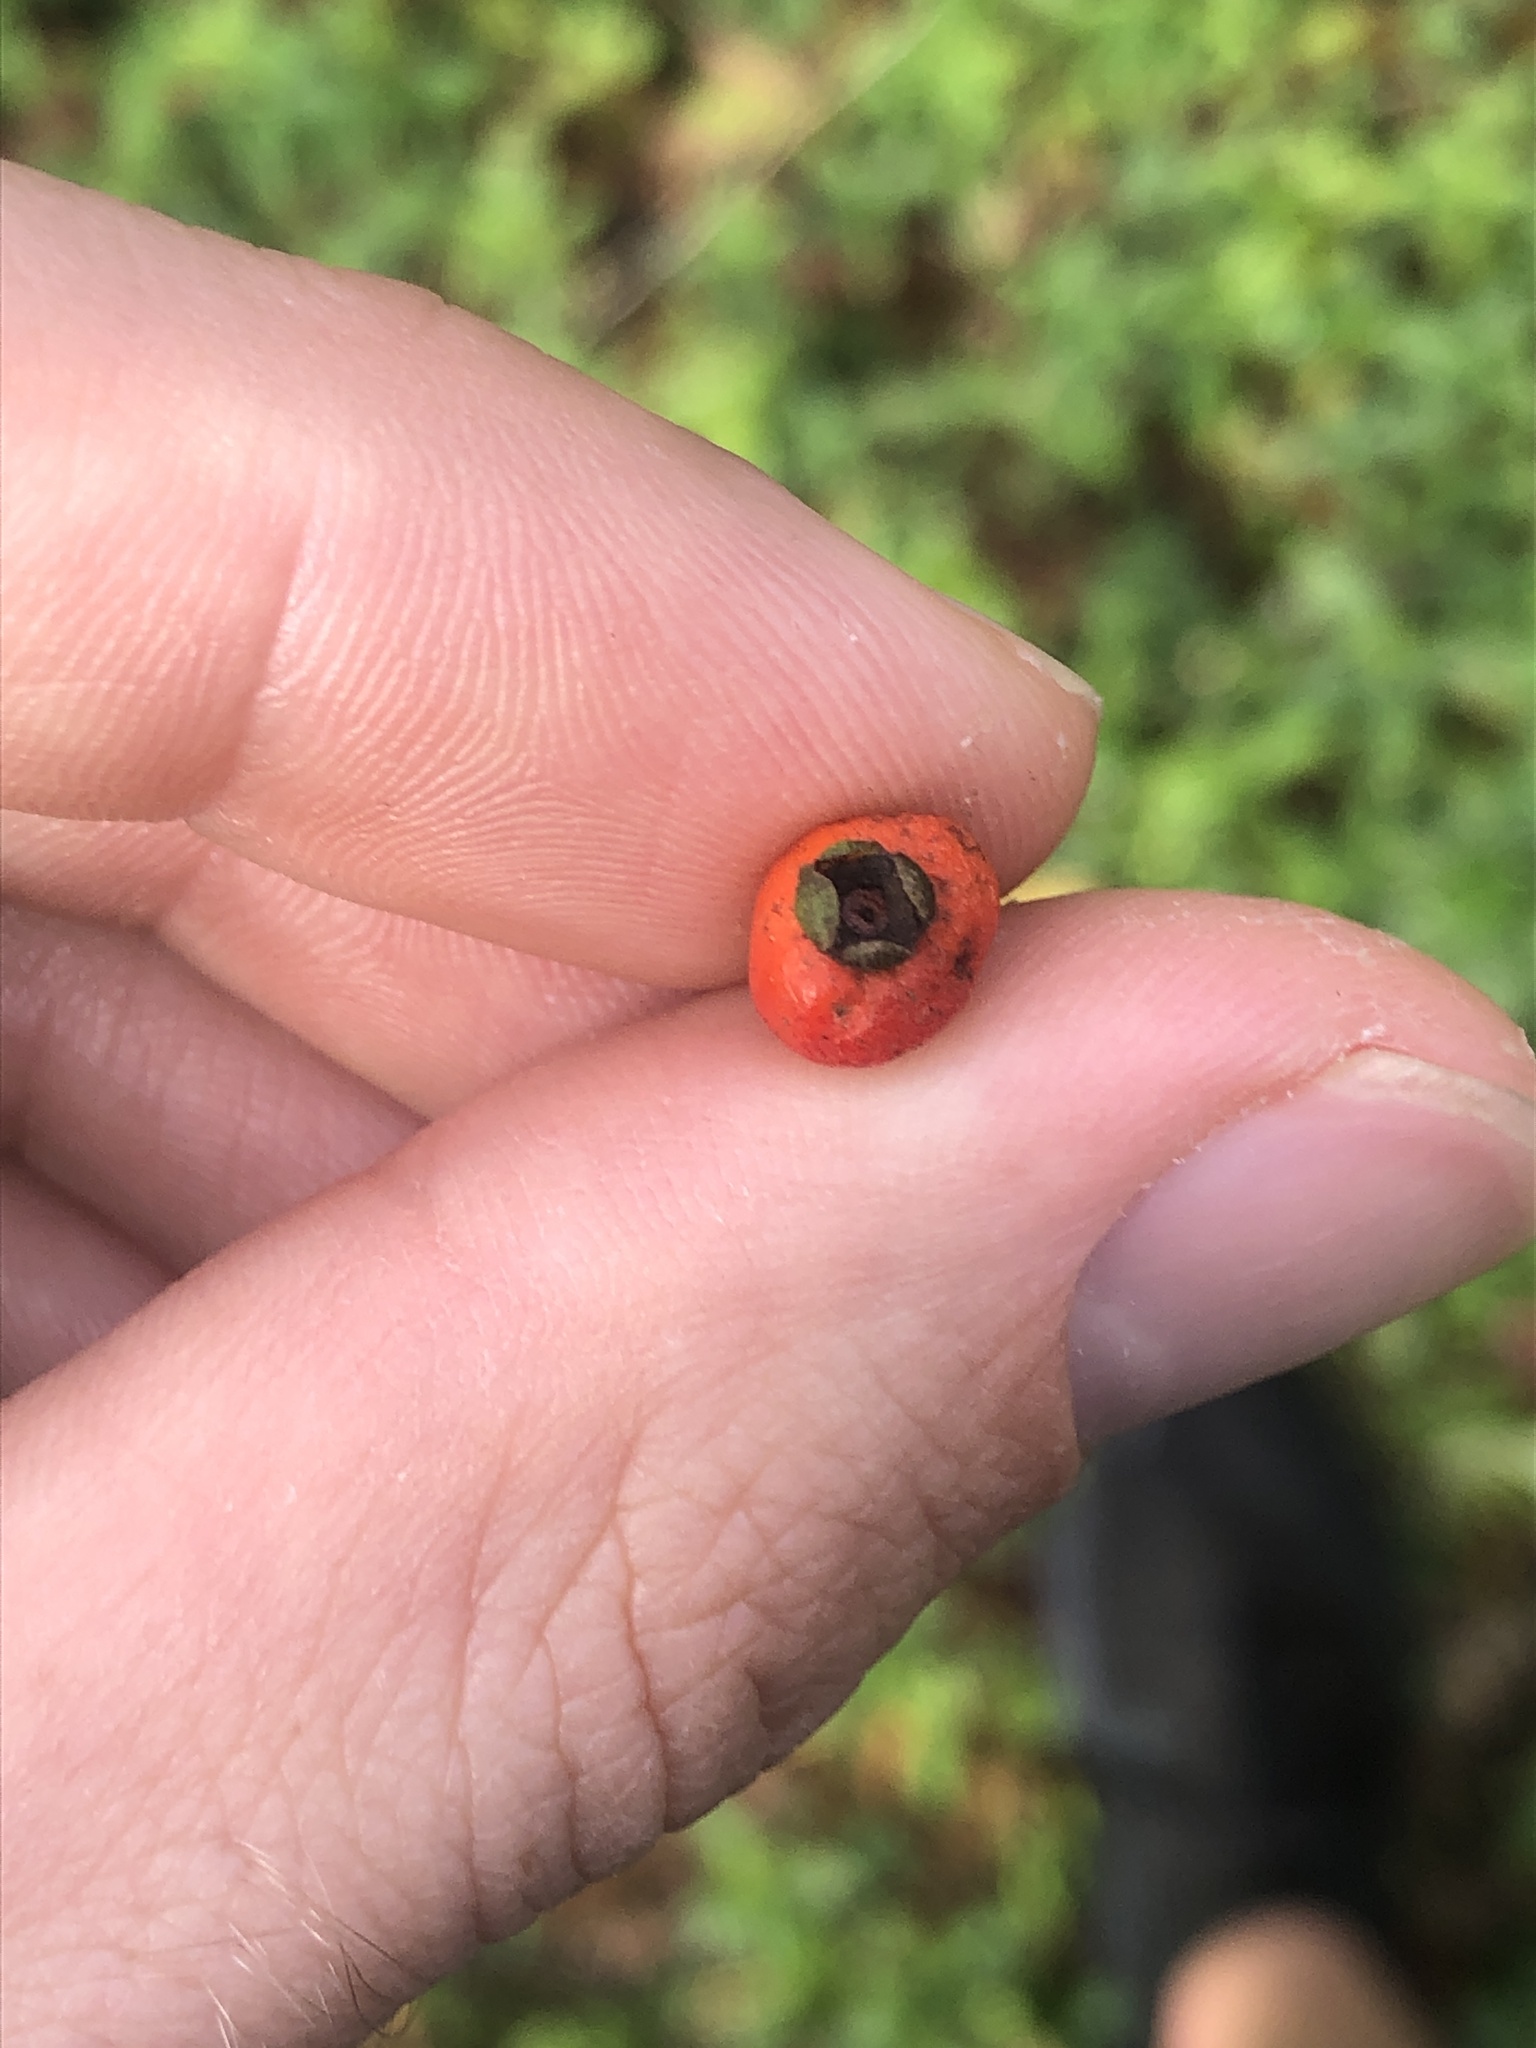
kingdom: Plantae
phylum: Tracheophyta
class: Magnoliopsida
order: Myrtales
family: Myrtaceae
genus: Myrcianthes
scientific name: Myrcianthes fragrans
